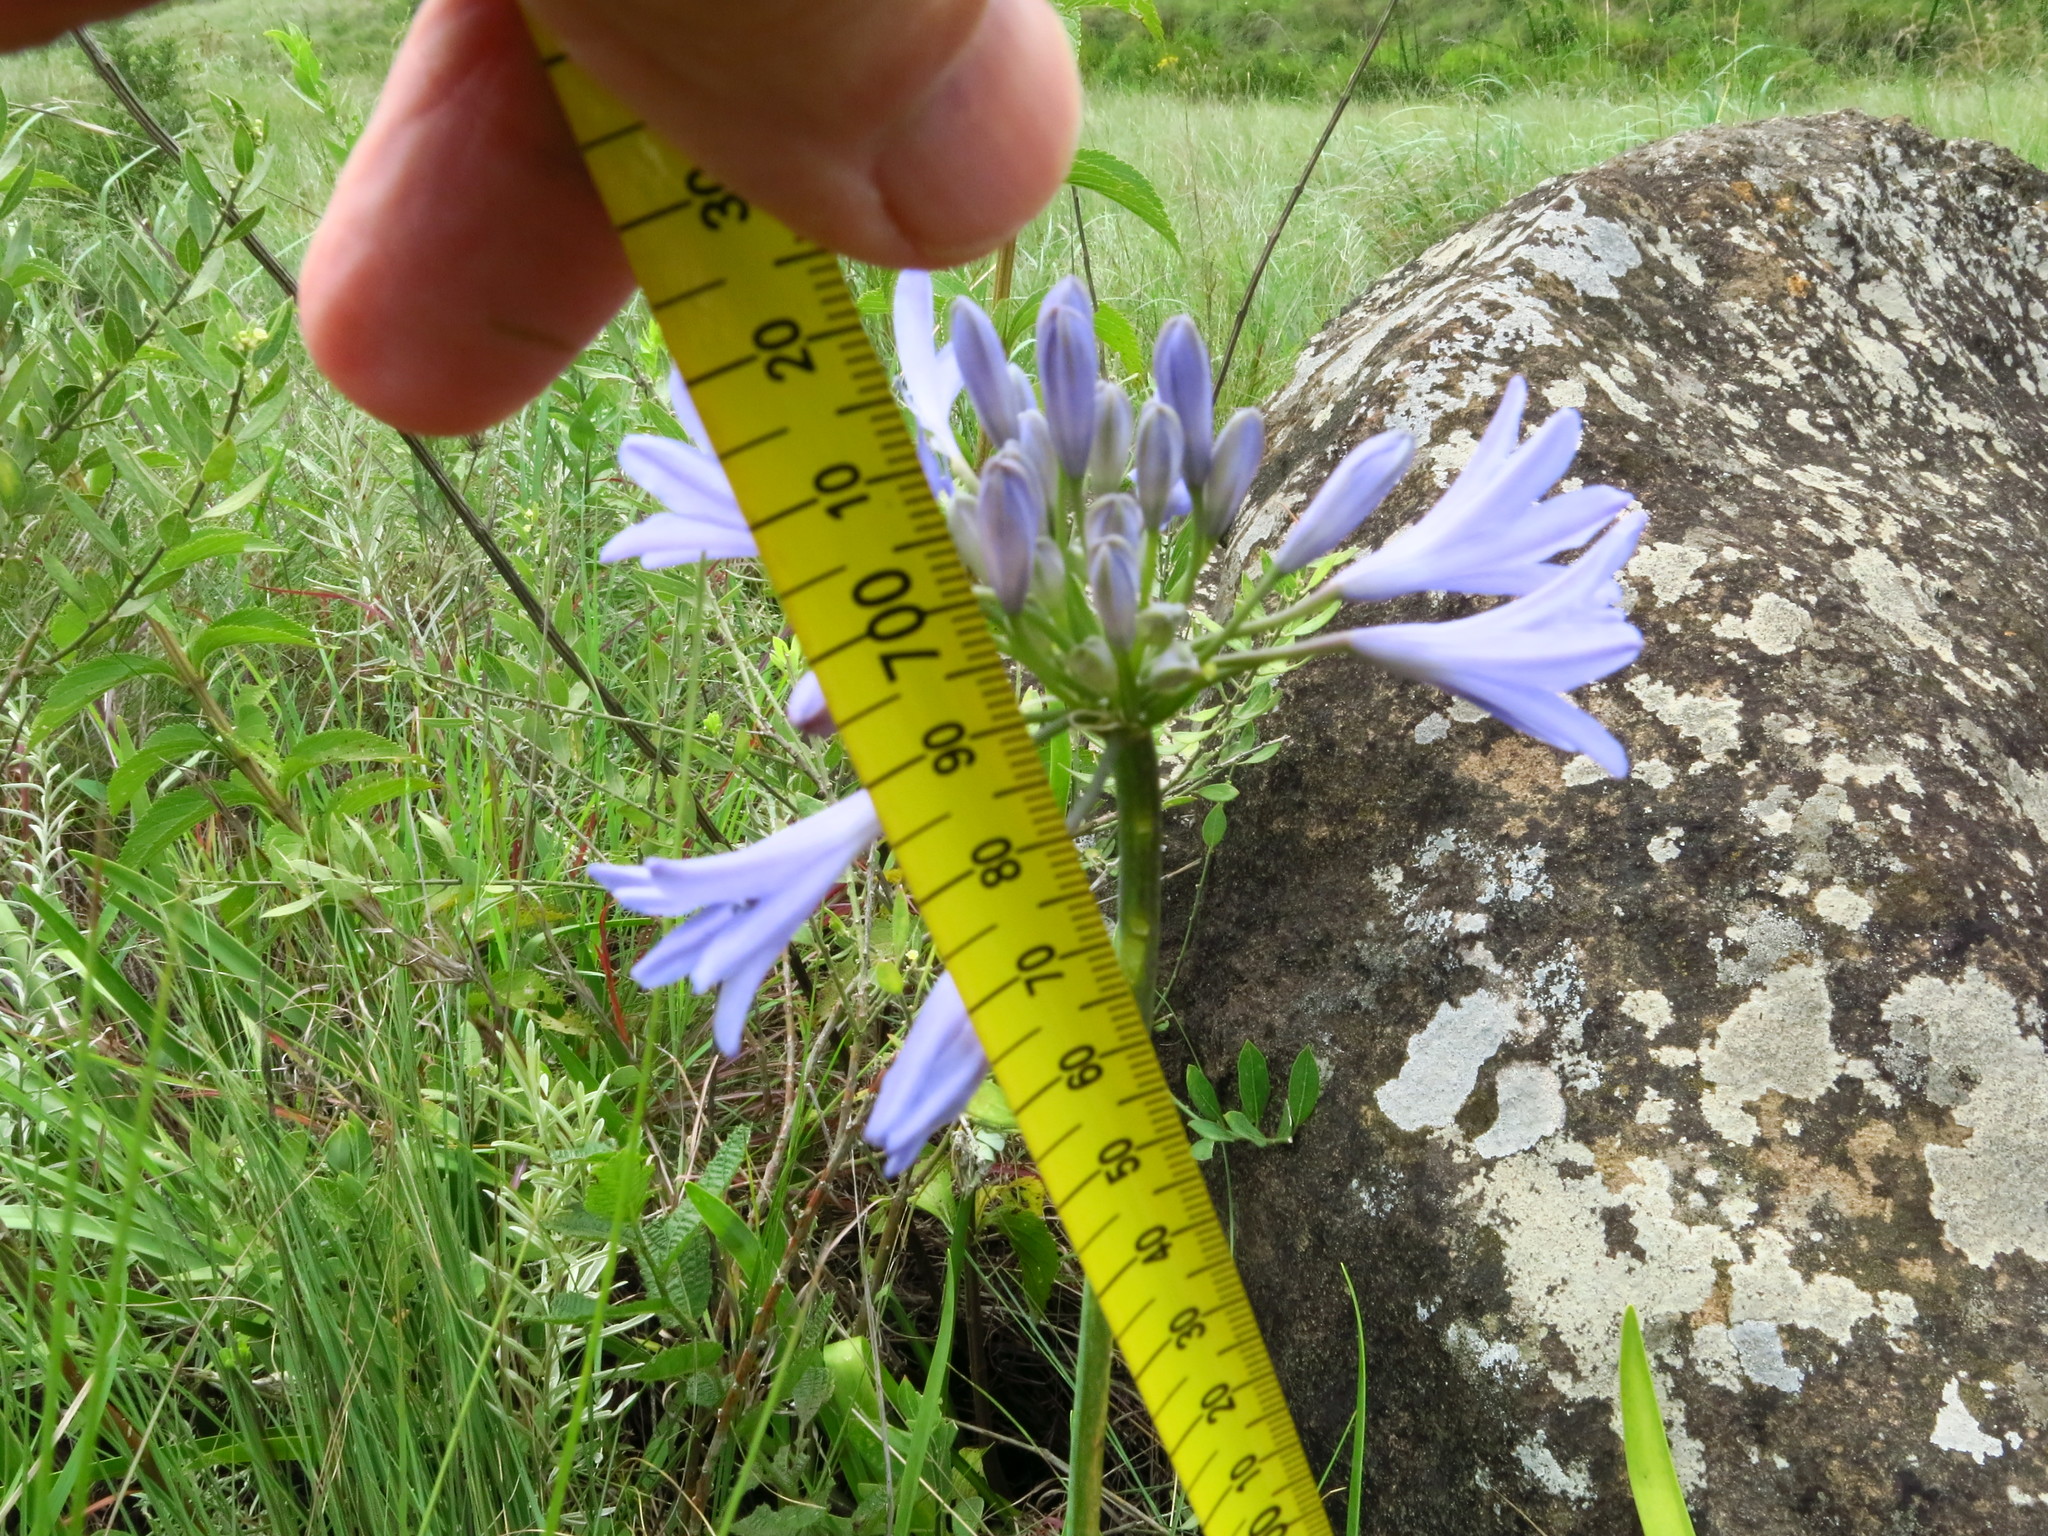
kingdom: Plantae
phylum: Tracheophyta
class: Liliopsida
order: Asparagales
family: Amaryllidaceae
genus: Agapanthus
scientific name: Agapanthus campanulatus
